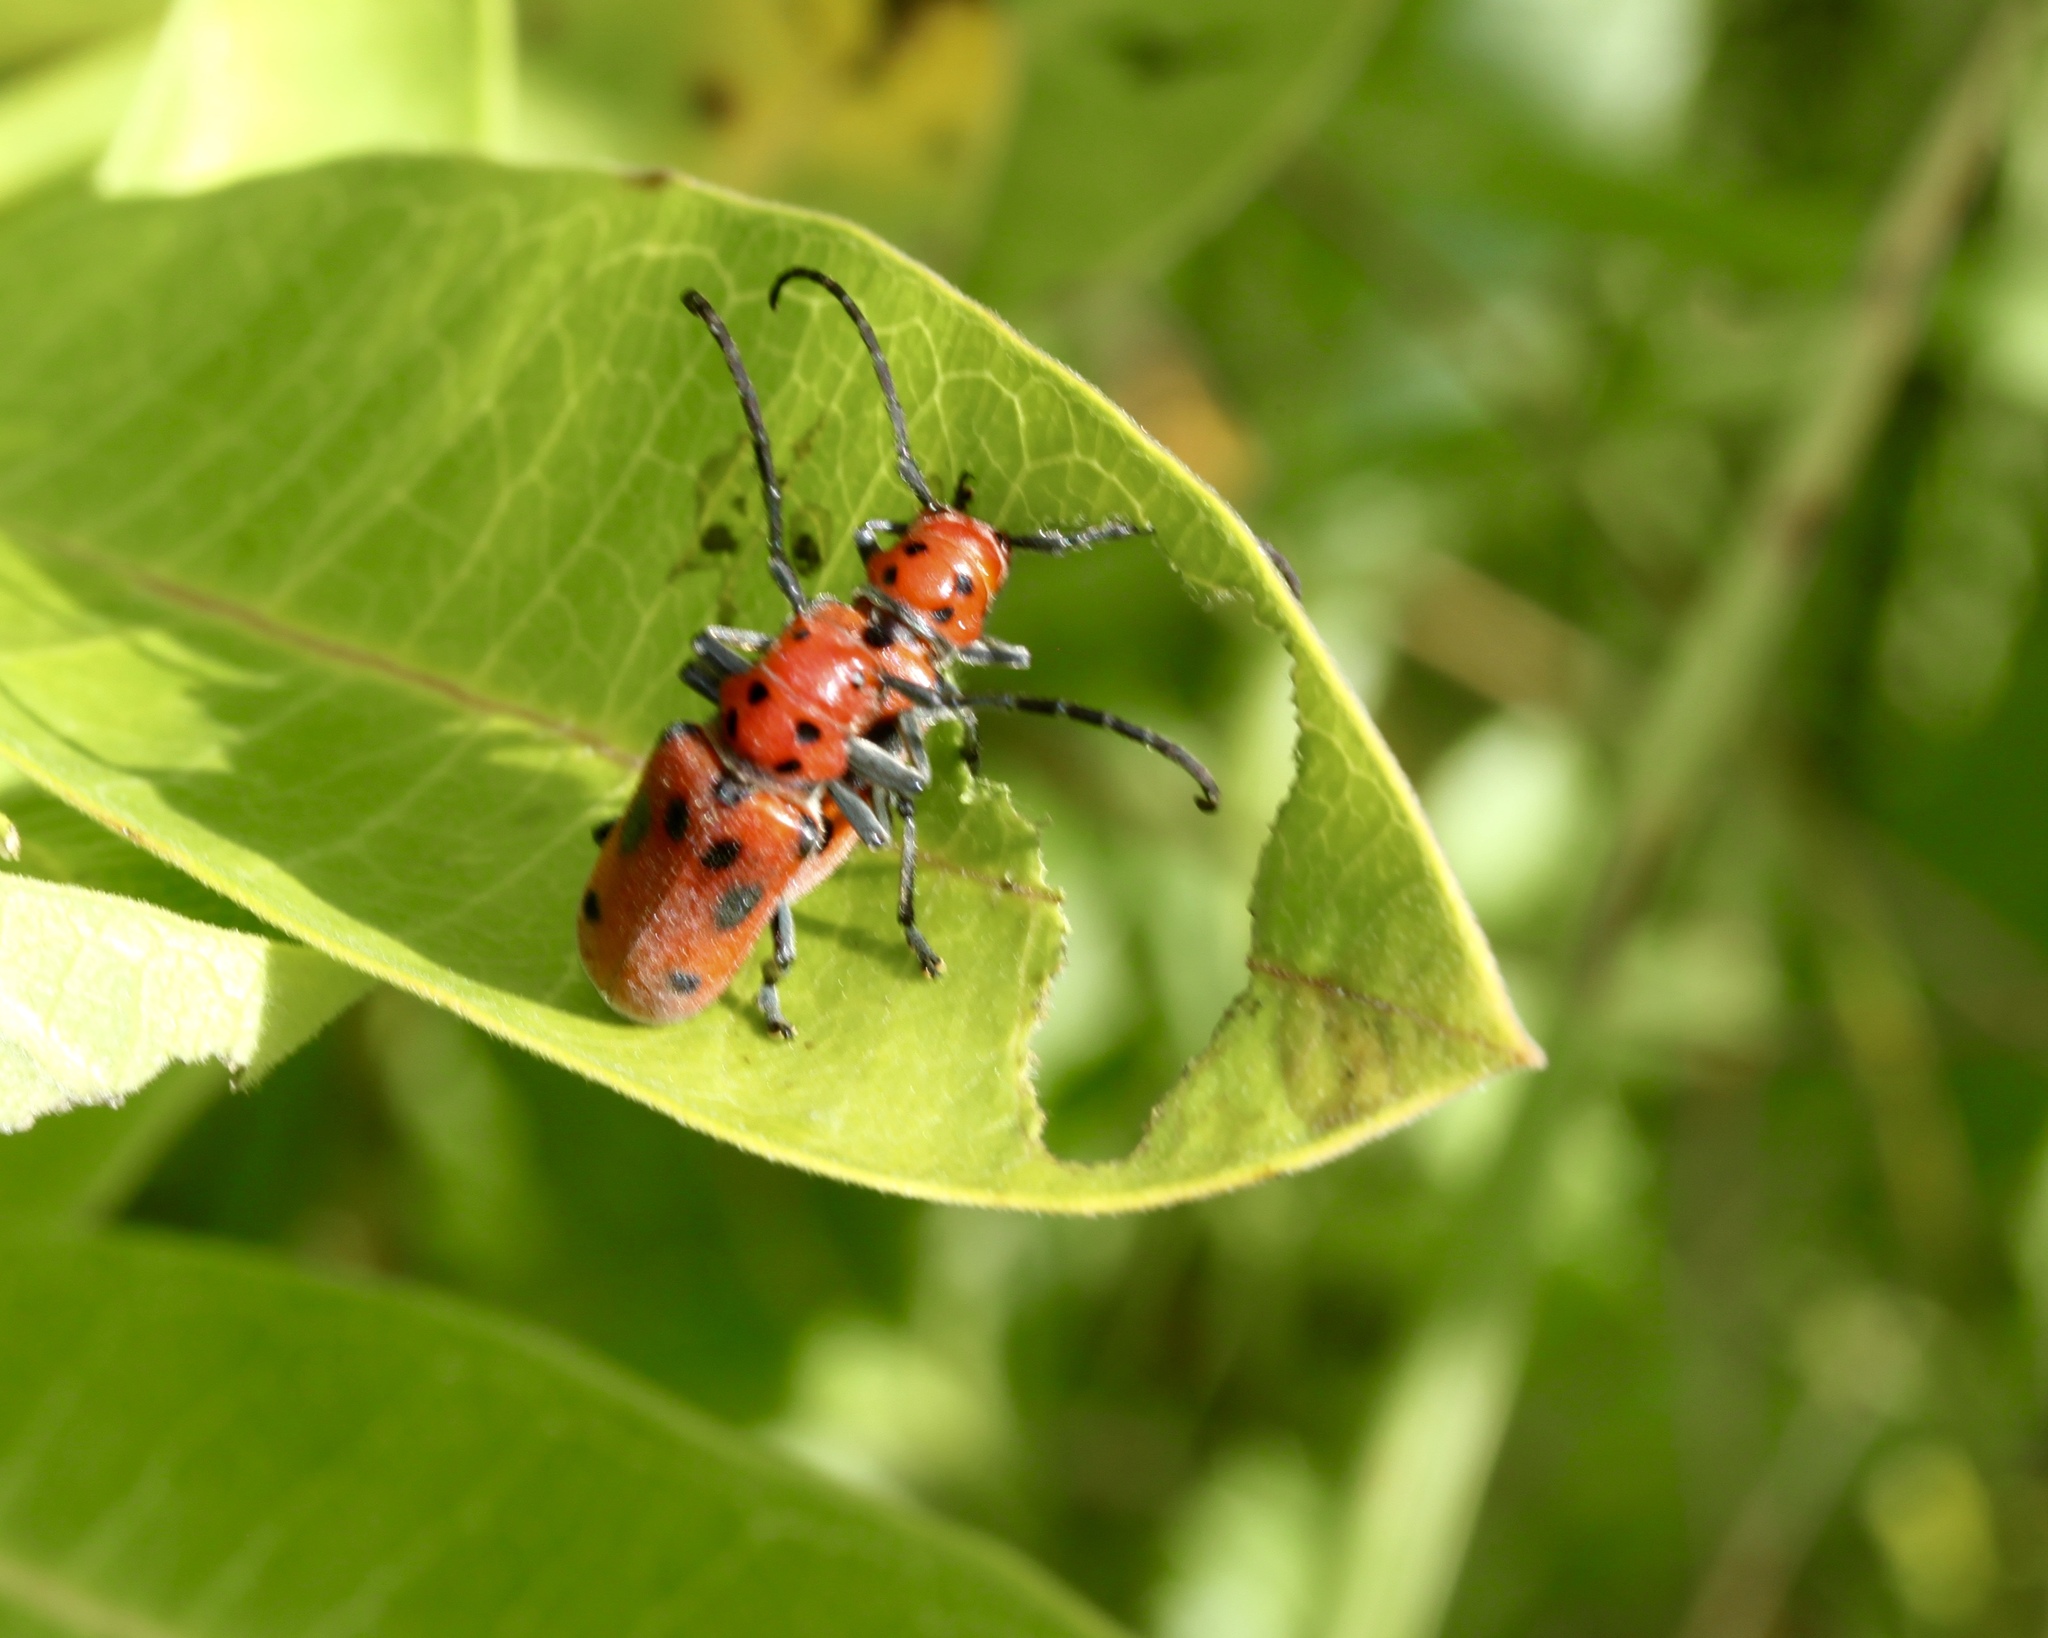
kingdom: Animalia
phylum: Arthropoda
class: Insecta
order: Coleoptera
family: Cerambycidae
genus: Tetraopes
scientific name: Tetraopes tetrophthalmus
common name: Red milkweed beetle
